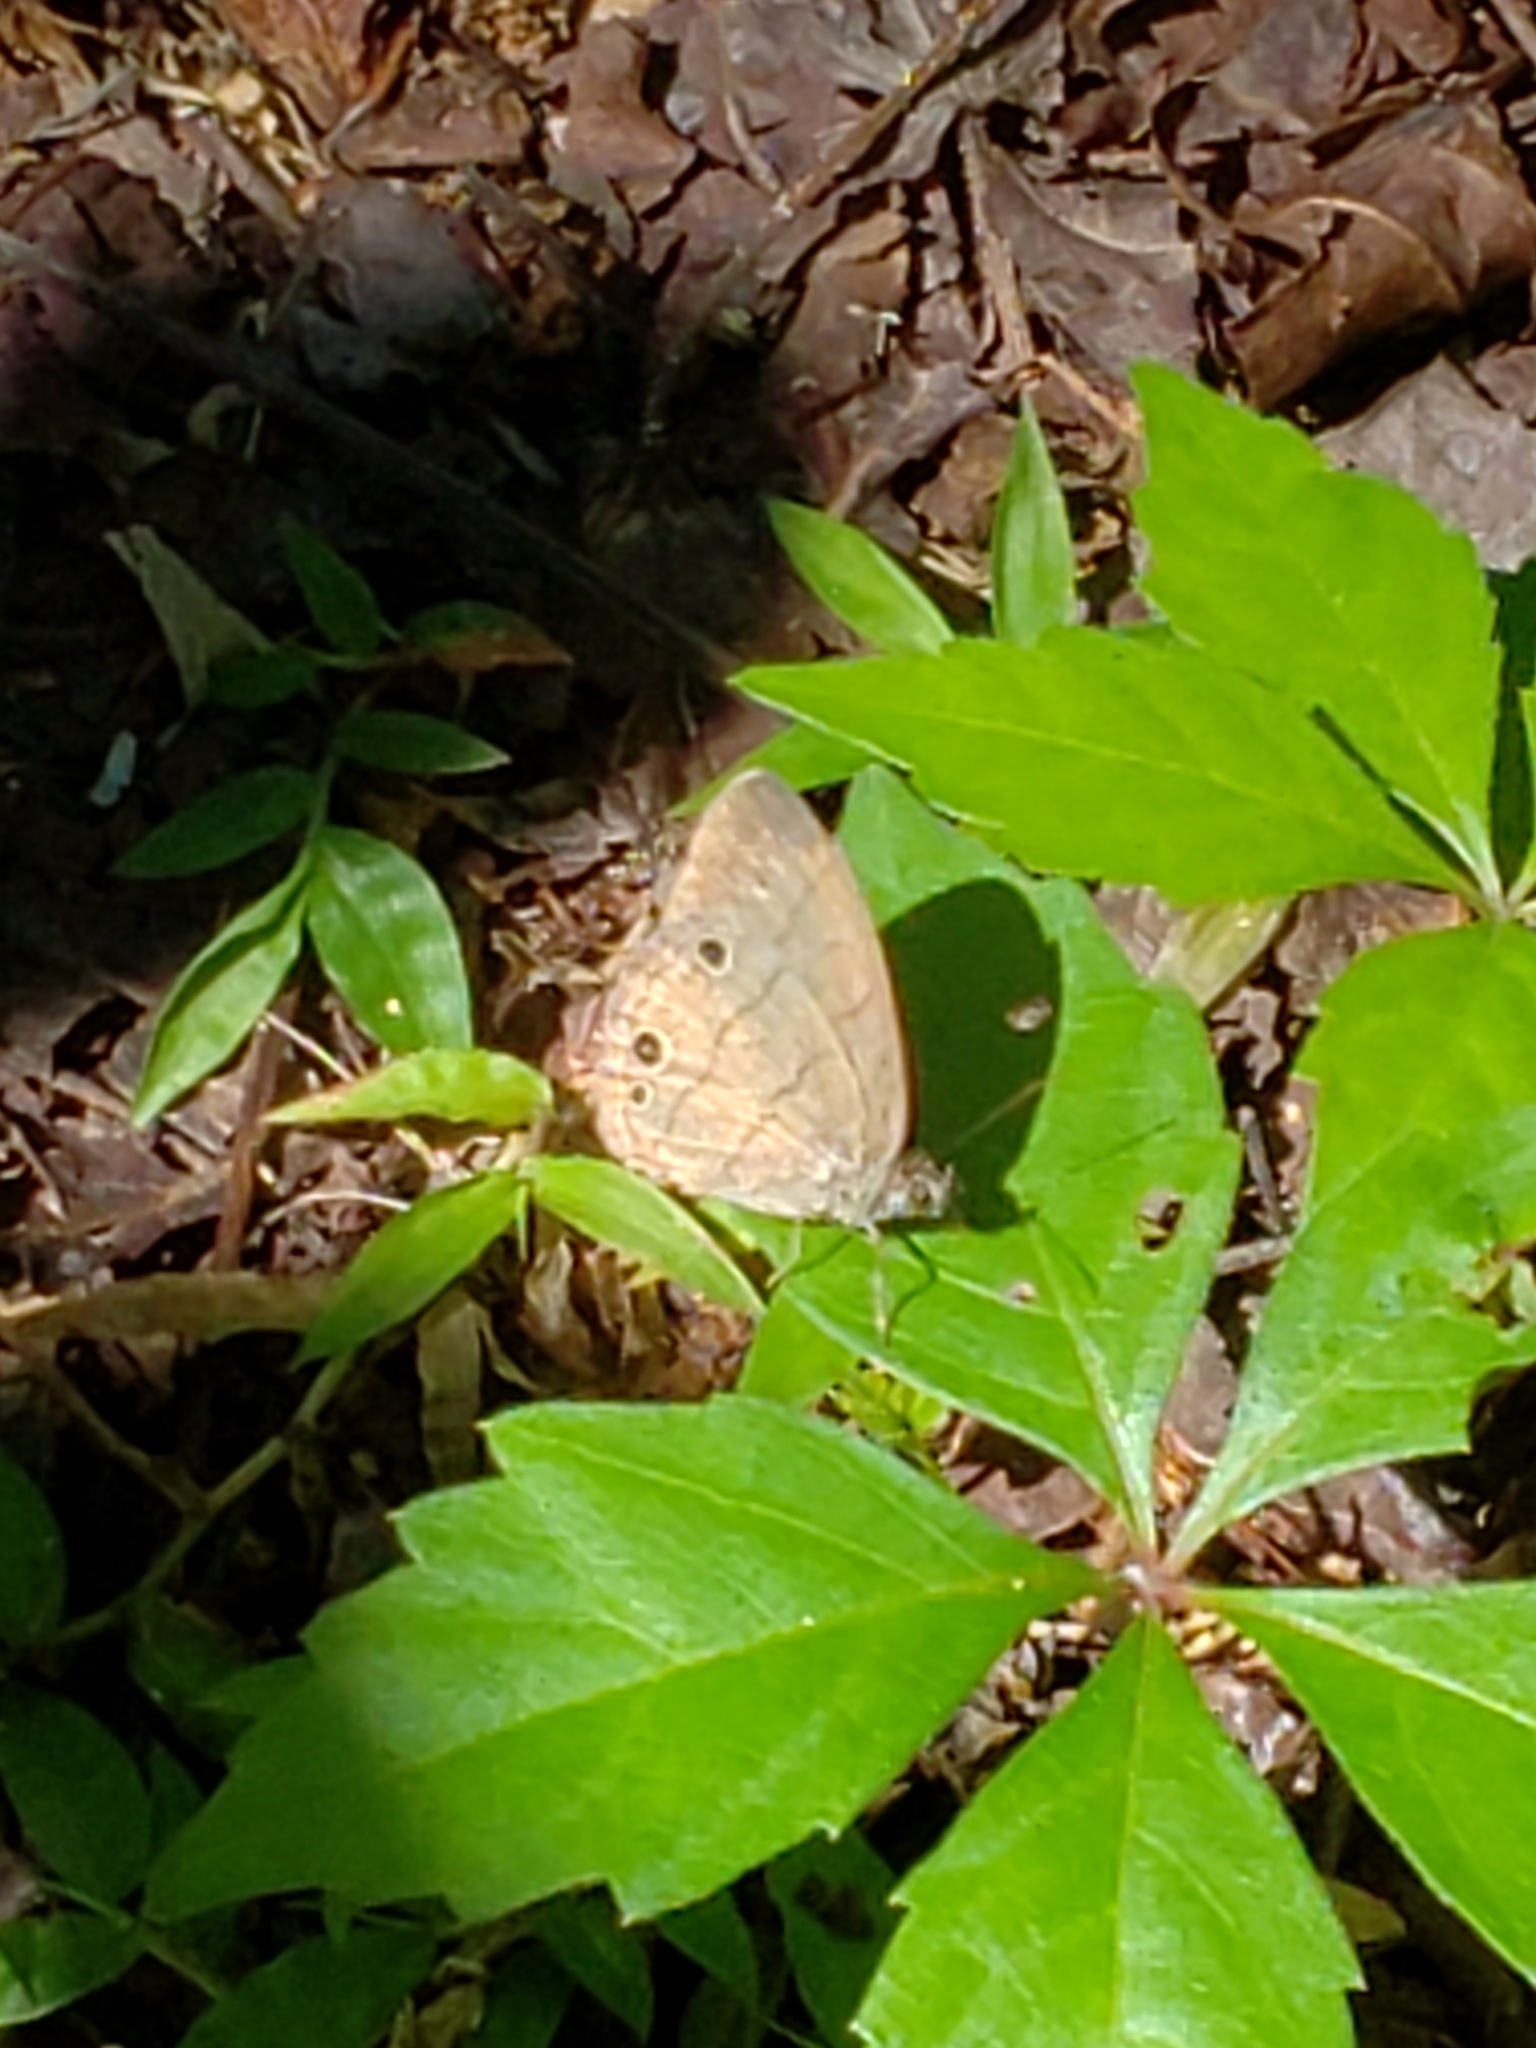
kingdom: Animalia
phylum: Arthropoda
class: Insecta
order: Lepidoptera
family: Nymphalidae
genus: Hermeuptychia
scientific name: Hermeuptychia hermes
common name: Hermes satyr
